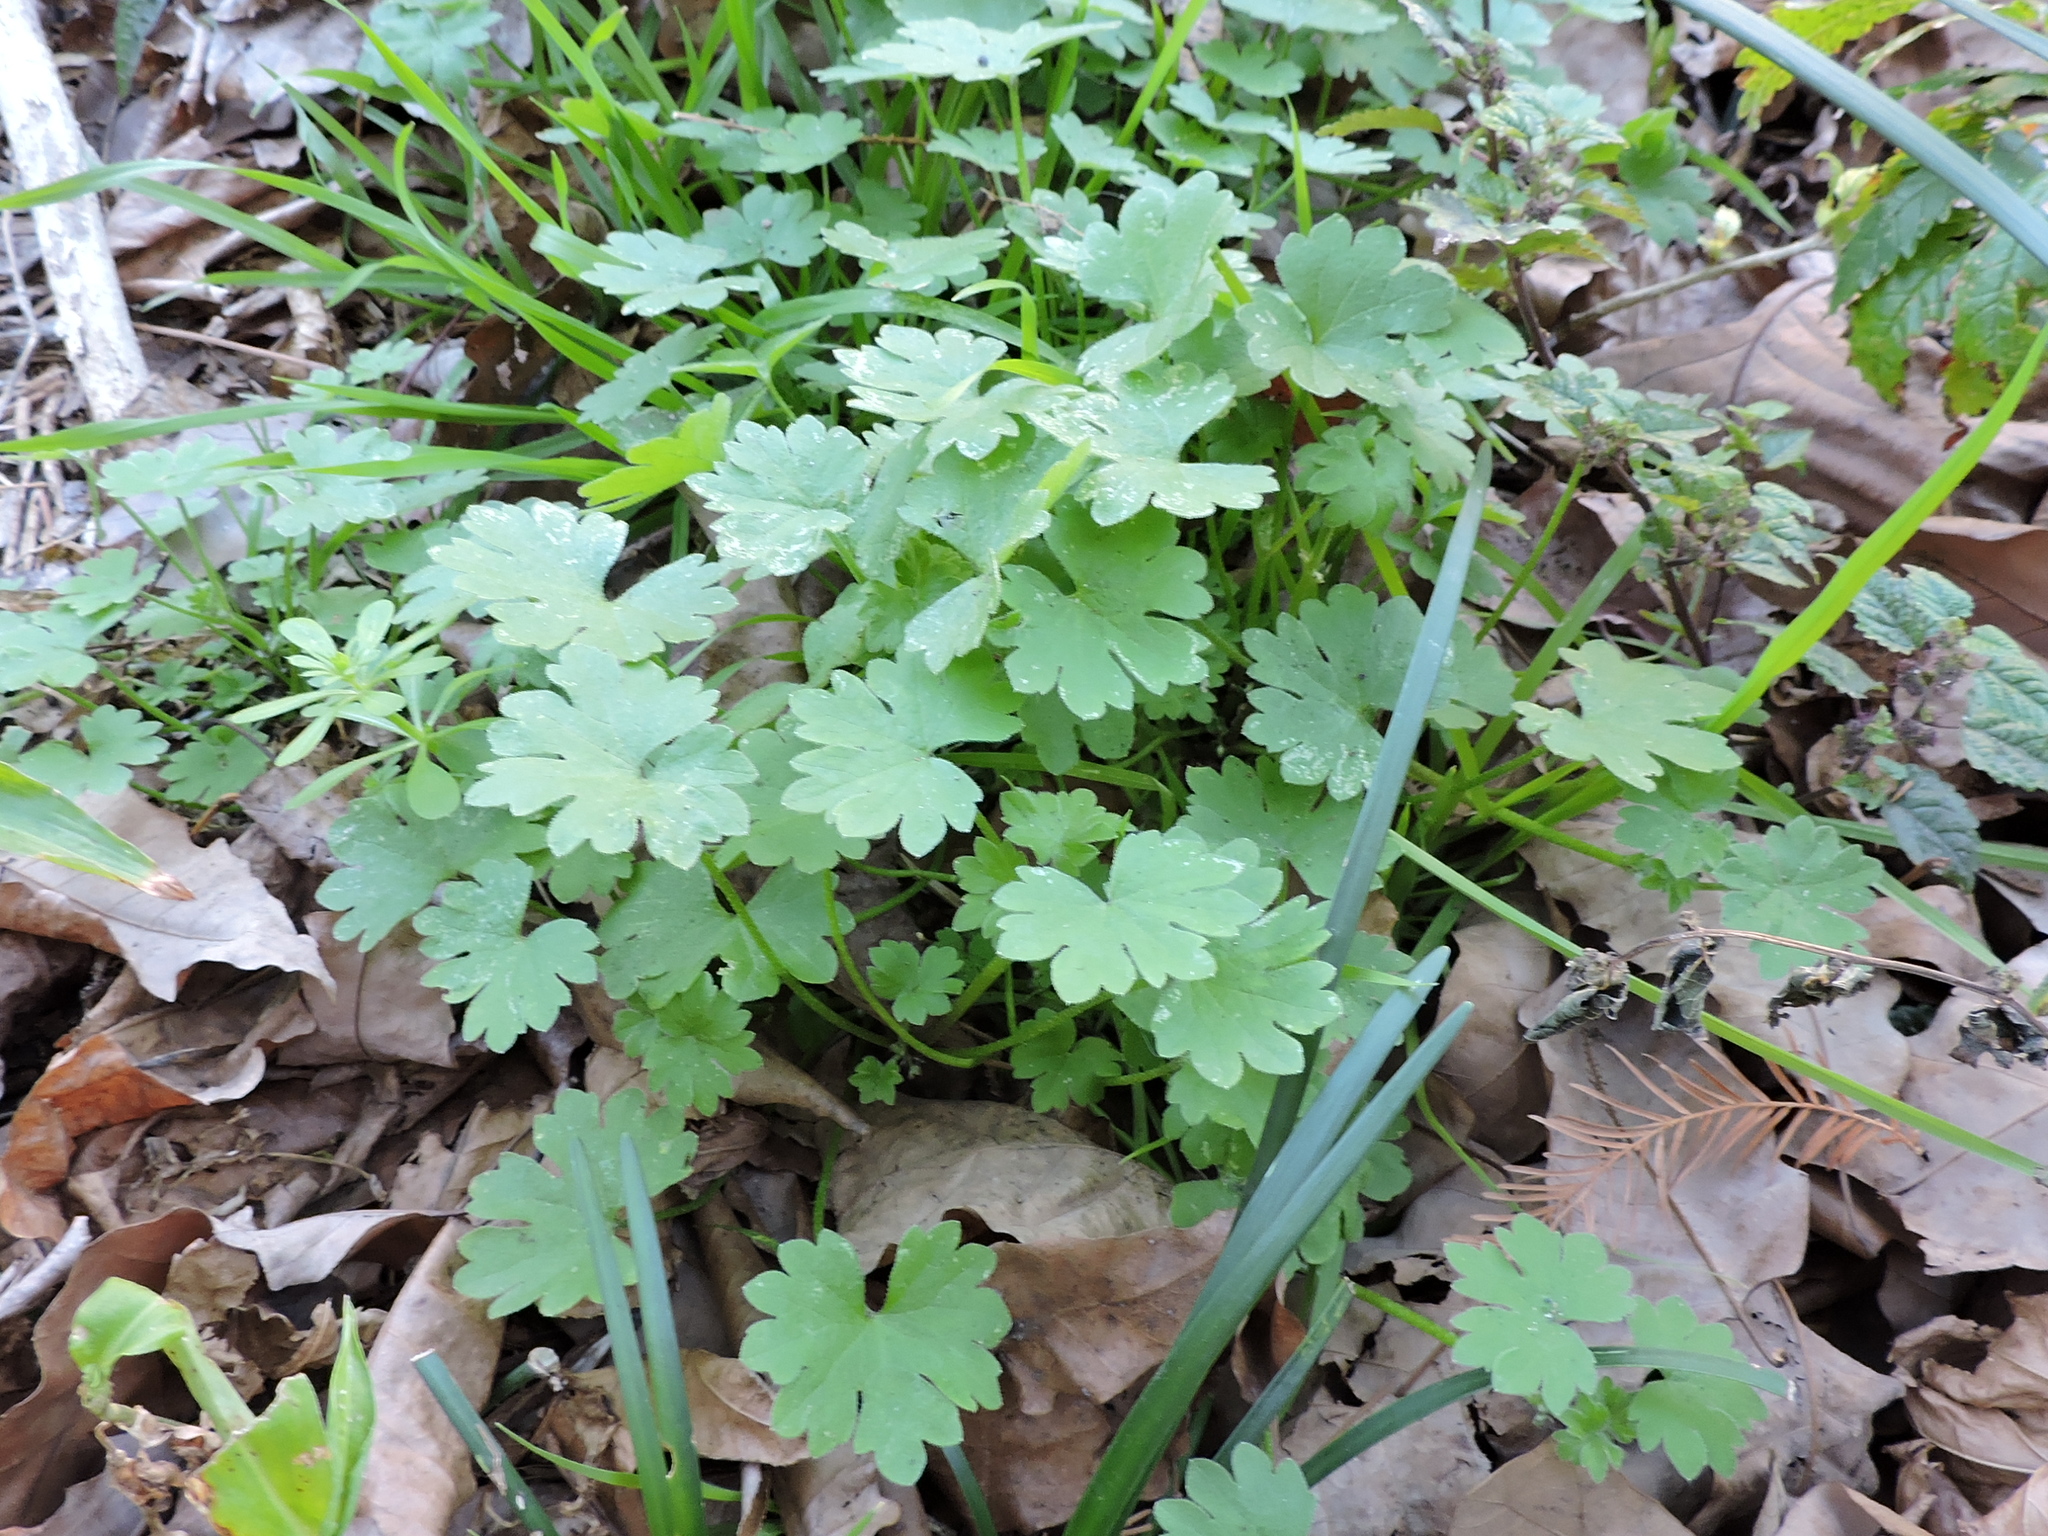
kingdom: Plantae
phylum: Tracheophyta
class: Magnoliopsida
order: Apiales
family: Apiaceae
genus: Bowlesia
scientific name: Bowlesia incana
